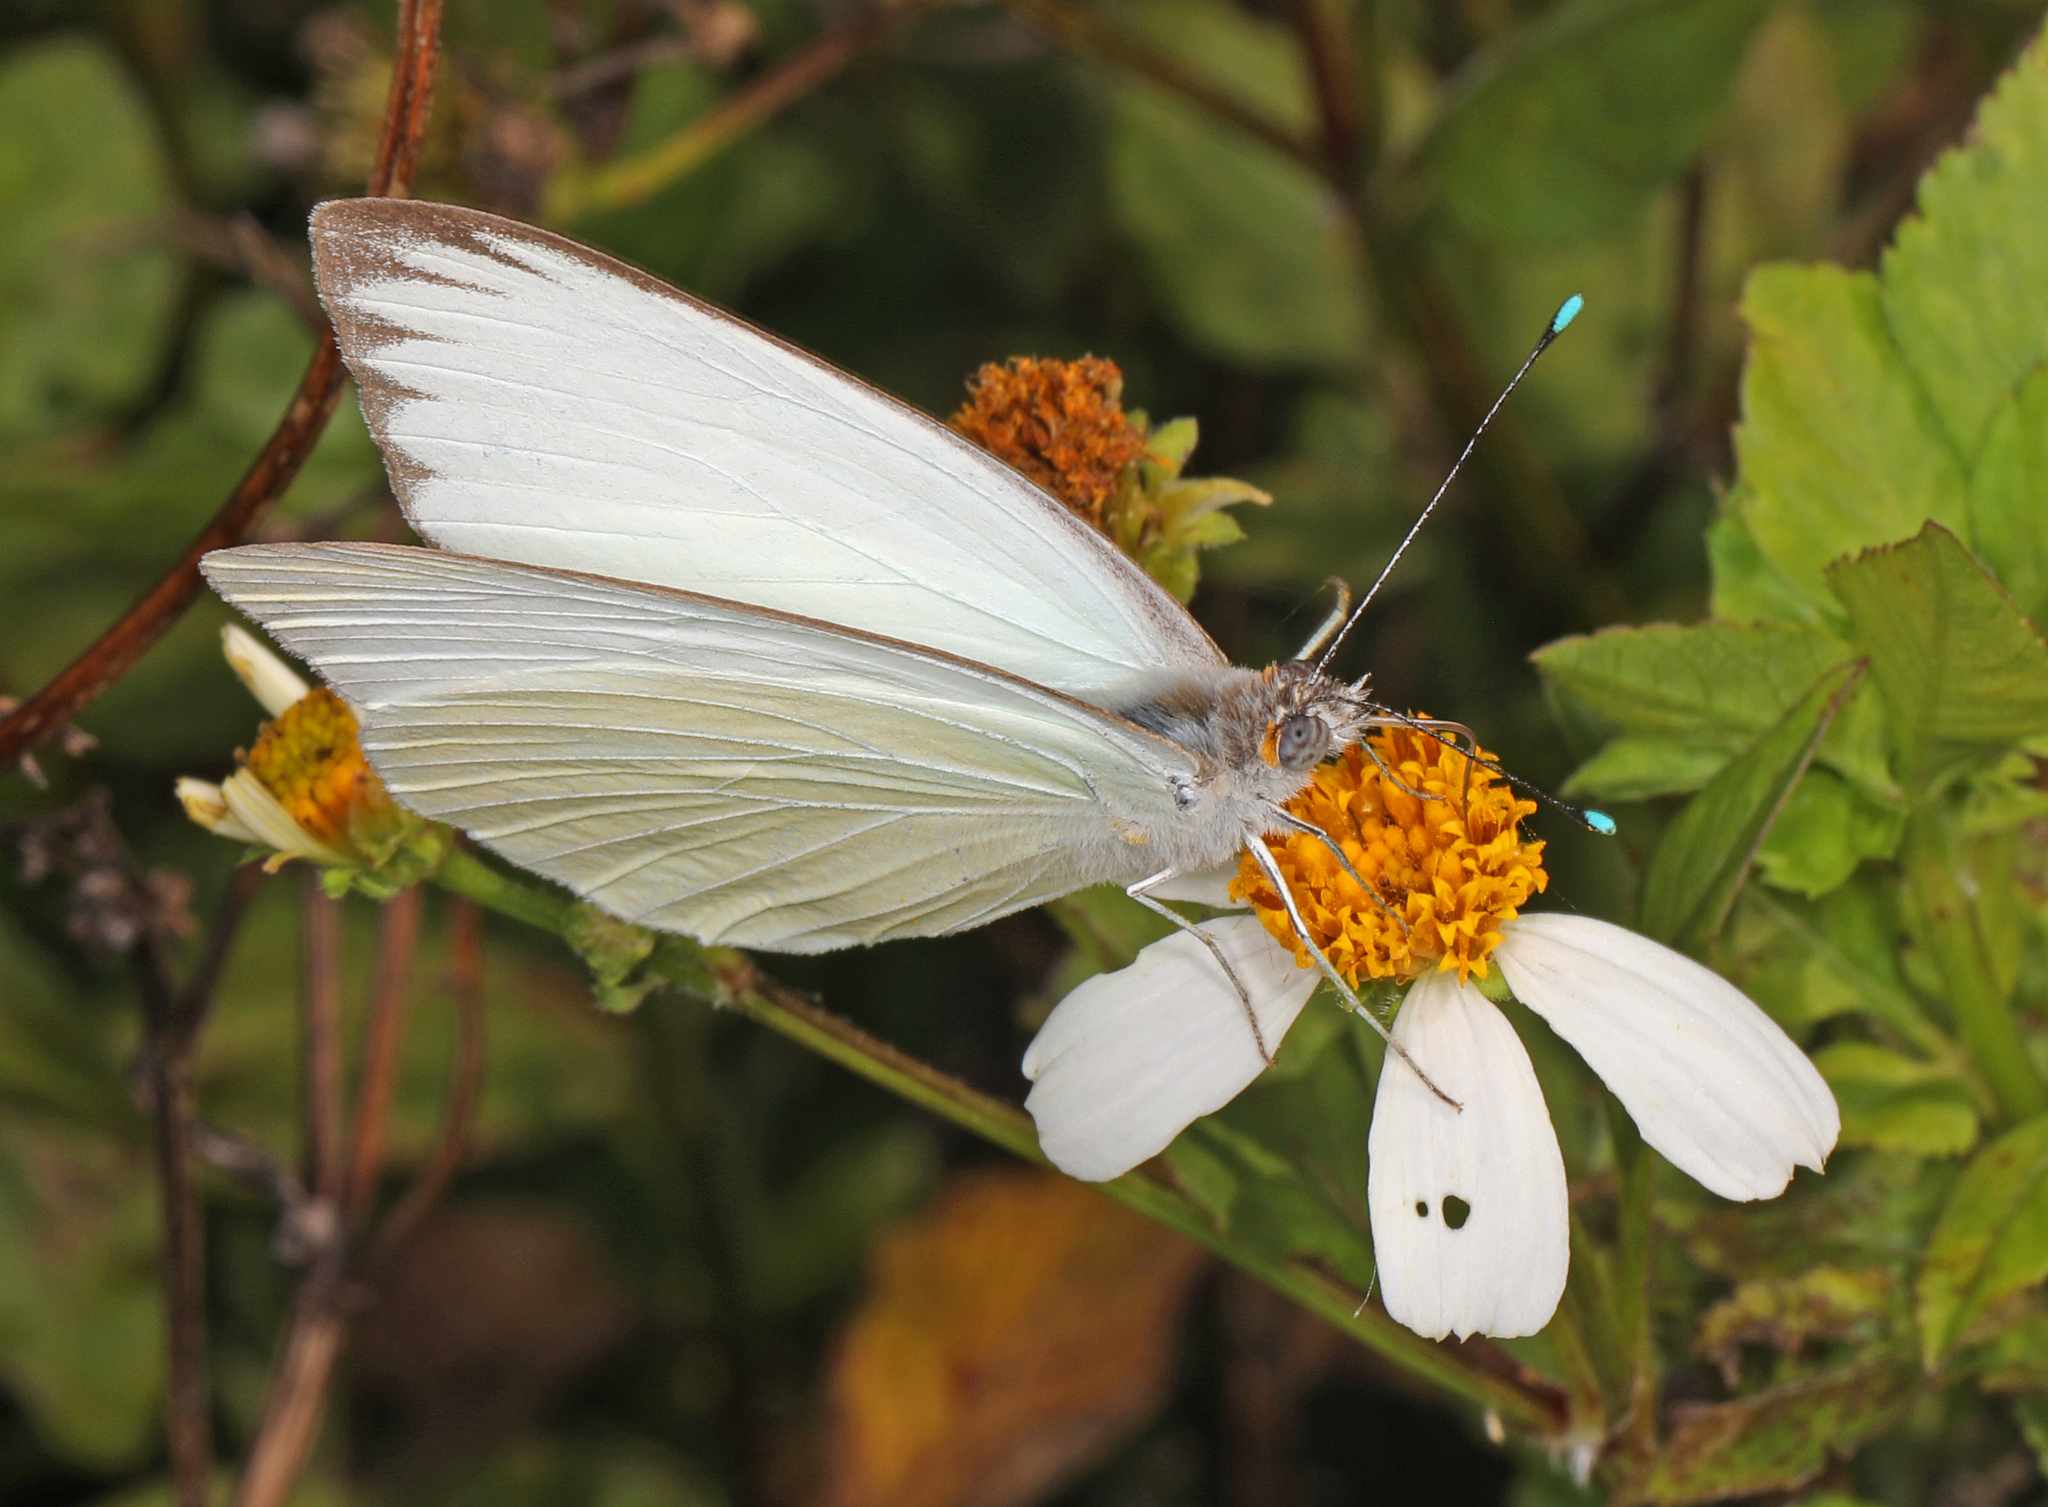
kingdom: Animalia
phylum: Arthropoda
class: Insecta
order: Lepidoptera
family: Pieridae
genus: Ascia
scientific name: Ascia monuste
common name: Great southern white
